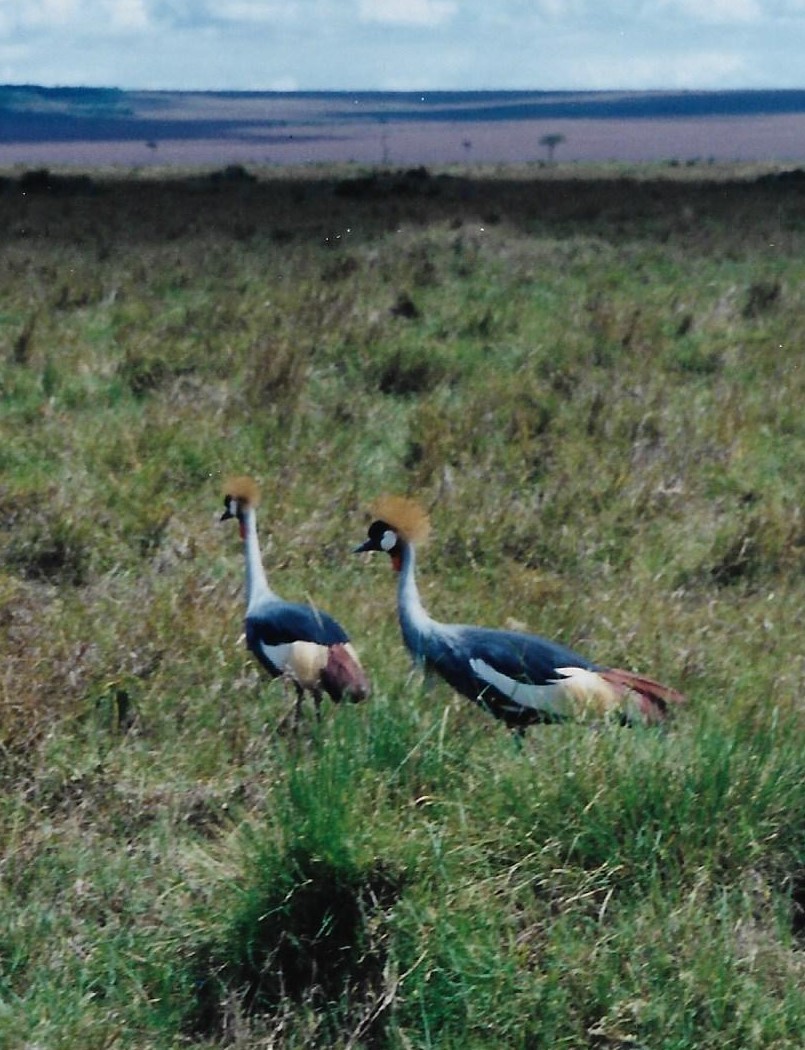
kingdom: Animalia
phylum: Chordata
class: Aves
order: Gruiformes
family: Gruidae
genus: Balearica
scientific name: Balearica regulorum
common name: Grey crowned crane
